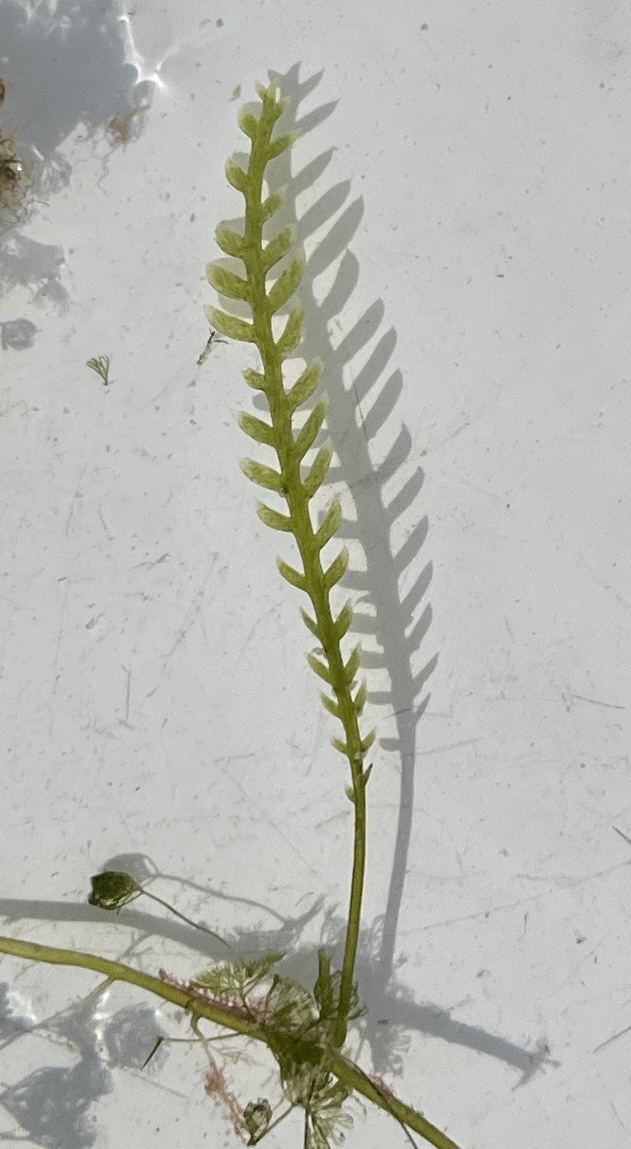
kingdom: Plantae
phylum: Chlorophyta
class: Ulvophyceae
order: Bryopsidales
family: Caulerpaceae
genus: Caulerpa
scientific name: Caulerpa mexicana
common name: Flat green feather algae
